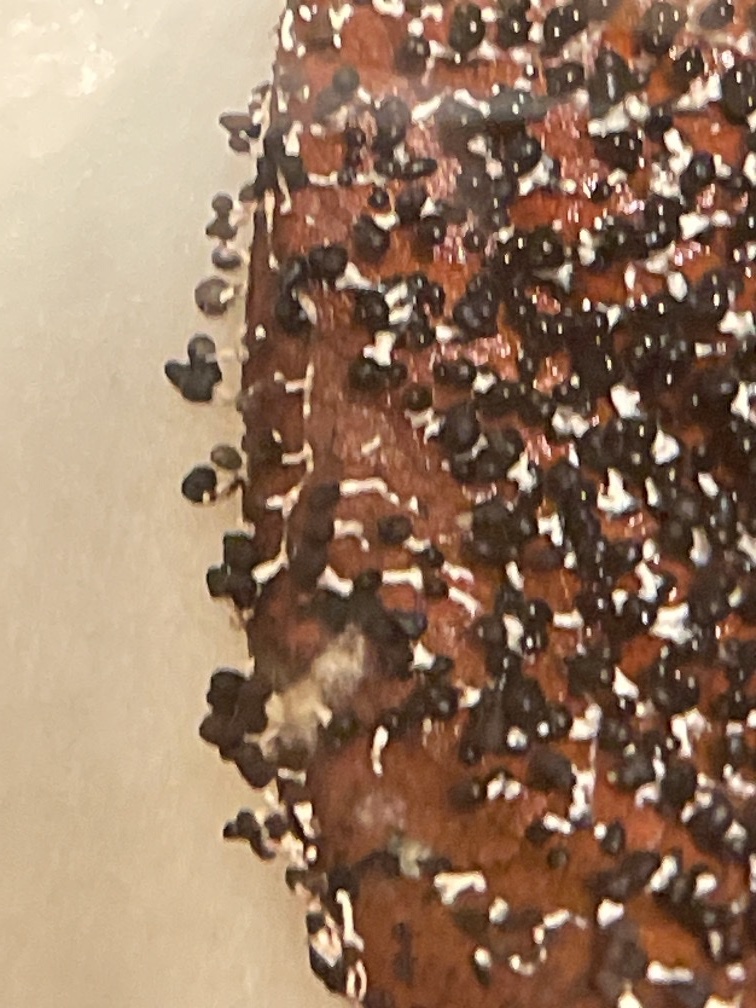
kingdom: Protozoa
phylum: Mycetozoa
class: Myxomycetes
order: Physarales
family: Didymiaceae
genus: Diachea
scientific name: Diachea leucopodia
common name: White-footed slime
